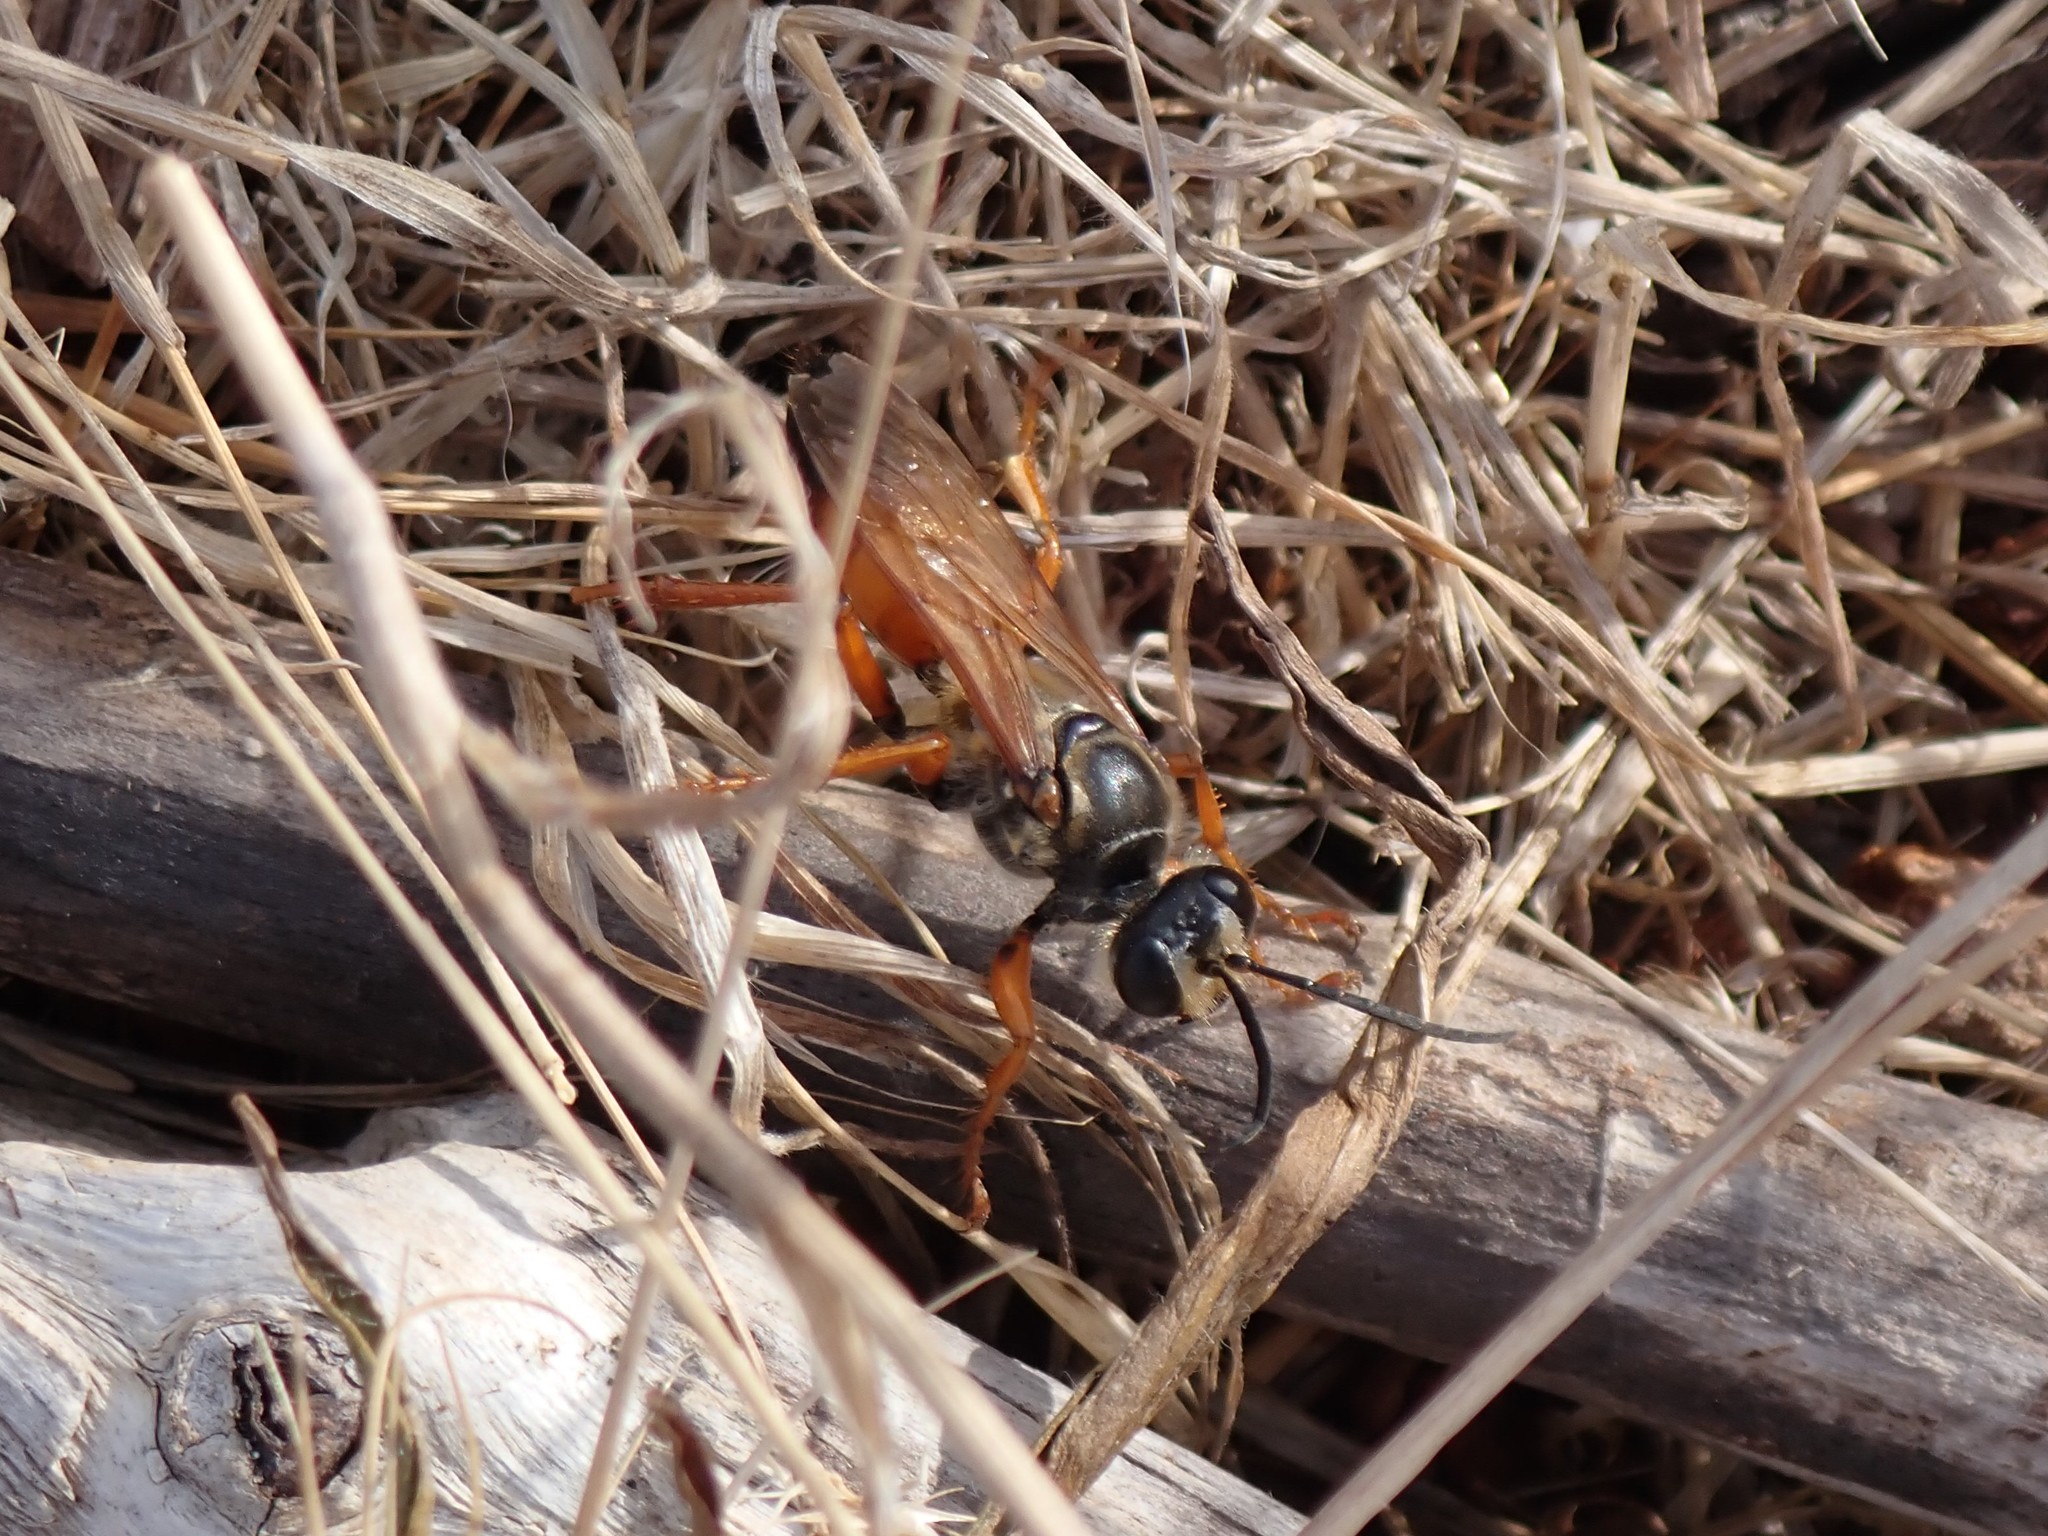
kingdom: Animalia
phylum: Arthropoda
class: Insecta
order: Hymenoptera
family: Sphecidae
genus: Sphex
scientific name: Sphex ichneumoneus
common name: Great golden digger wasp
